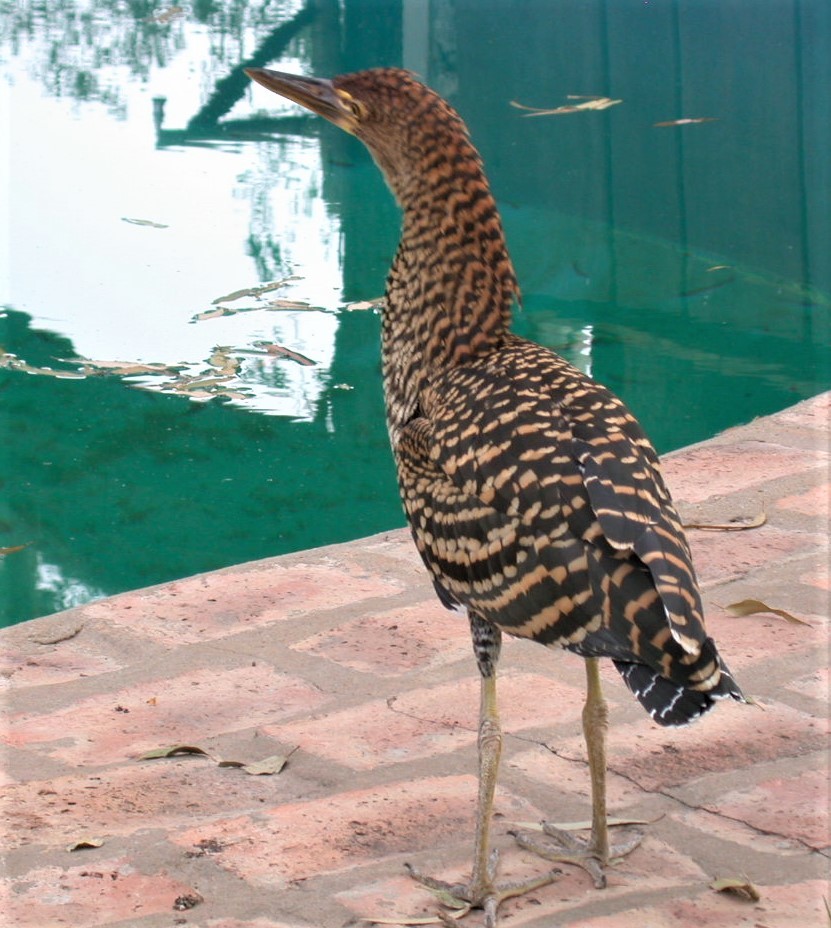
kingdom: Animalia
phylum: Chordata
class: Aves
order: Pelecaniformes
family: Ardeidae
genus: Tigrisoma
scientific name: Tigrisoma lineatum
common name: Rufescent tiger-heron
